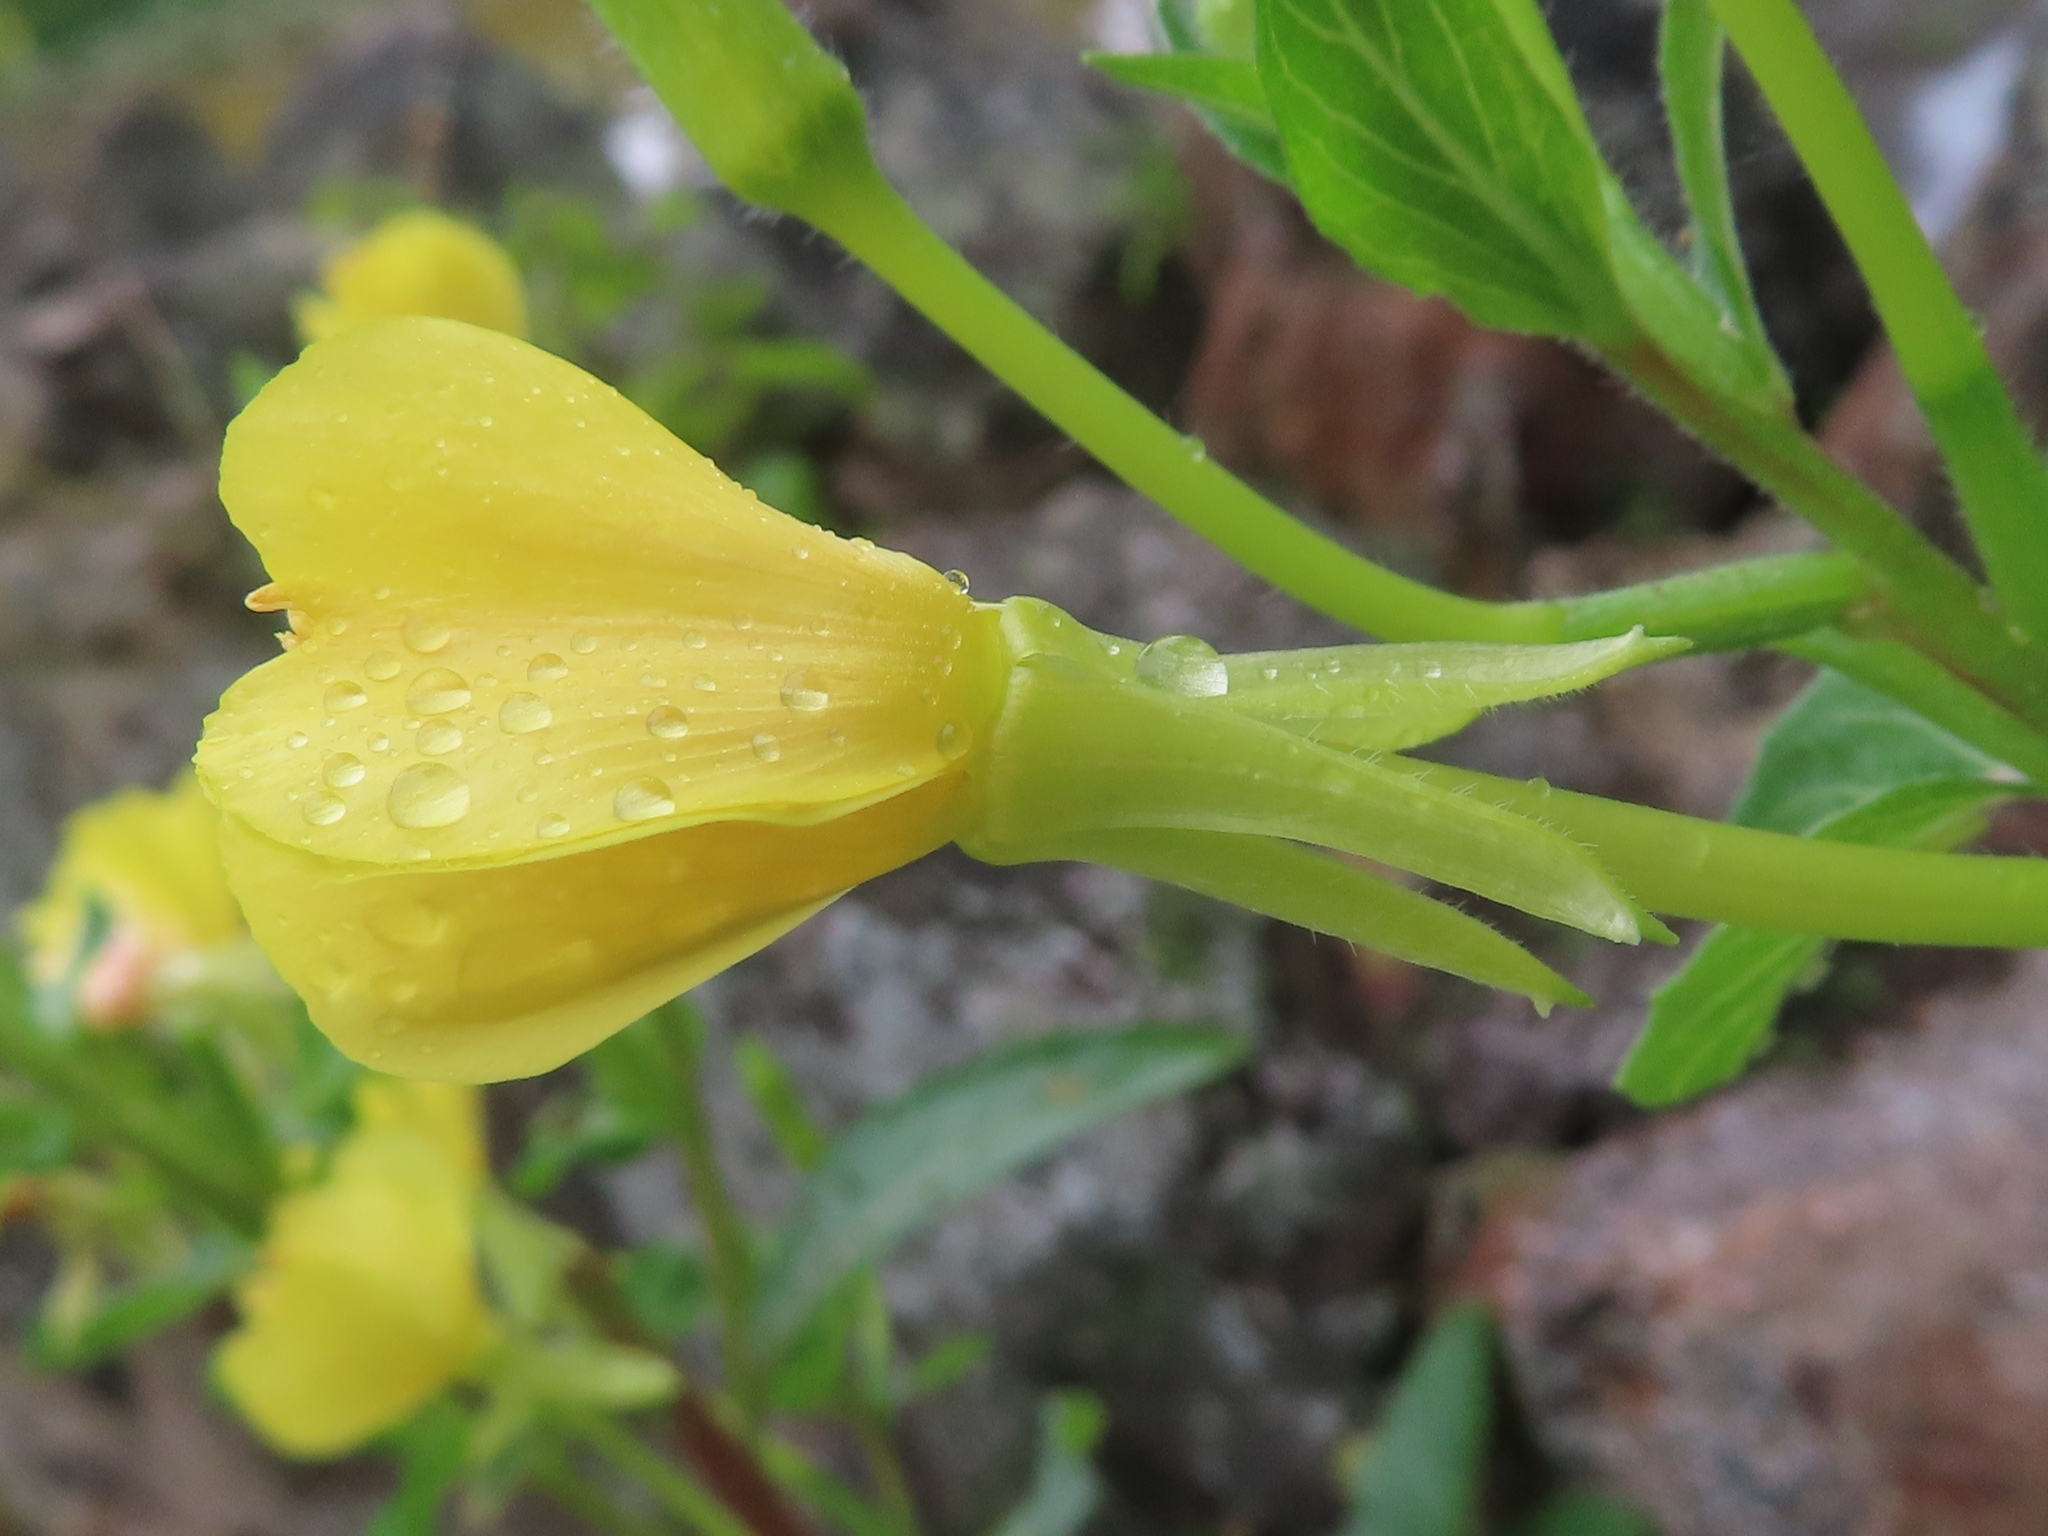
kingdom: Plantae
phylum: Tracheophyta
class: Magnoliopsida
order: Myrtales
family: Onagraceae
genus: Oenothera
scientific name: Oenothera parviflora
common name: Least evening-primrose
